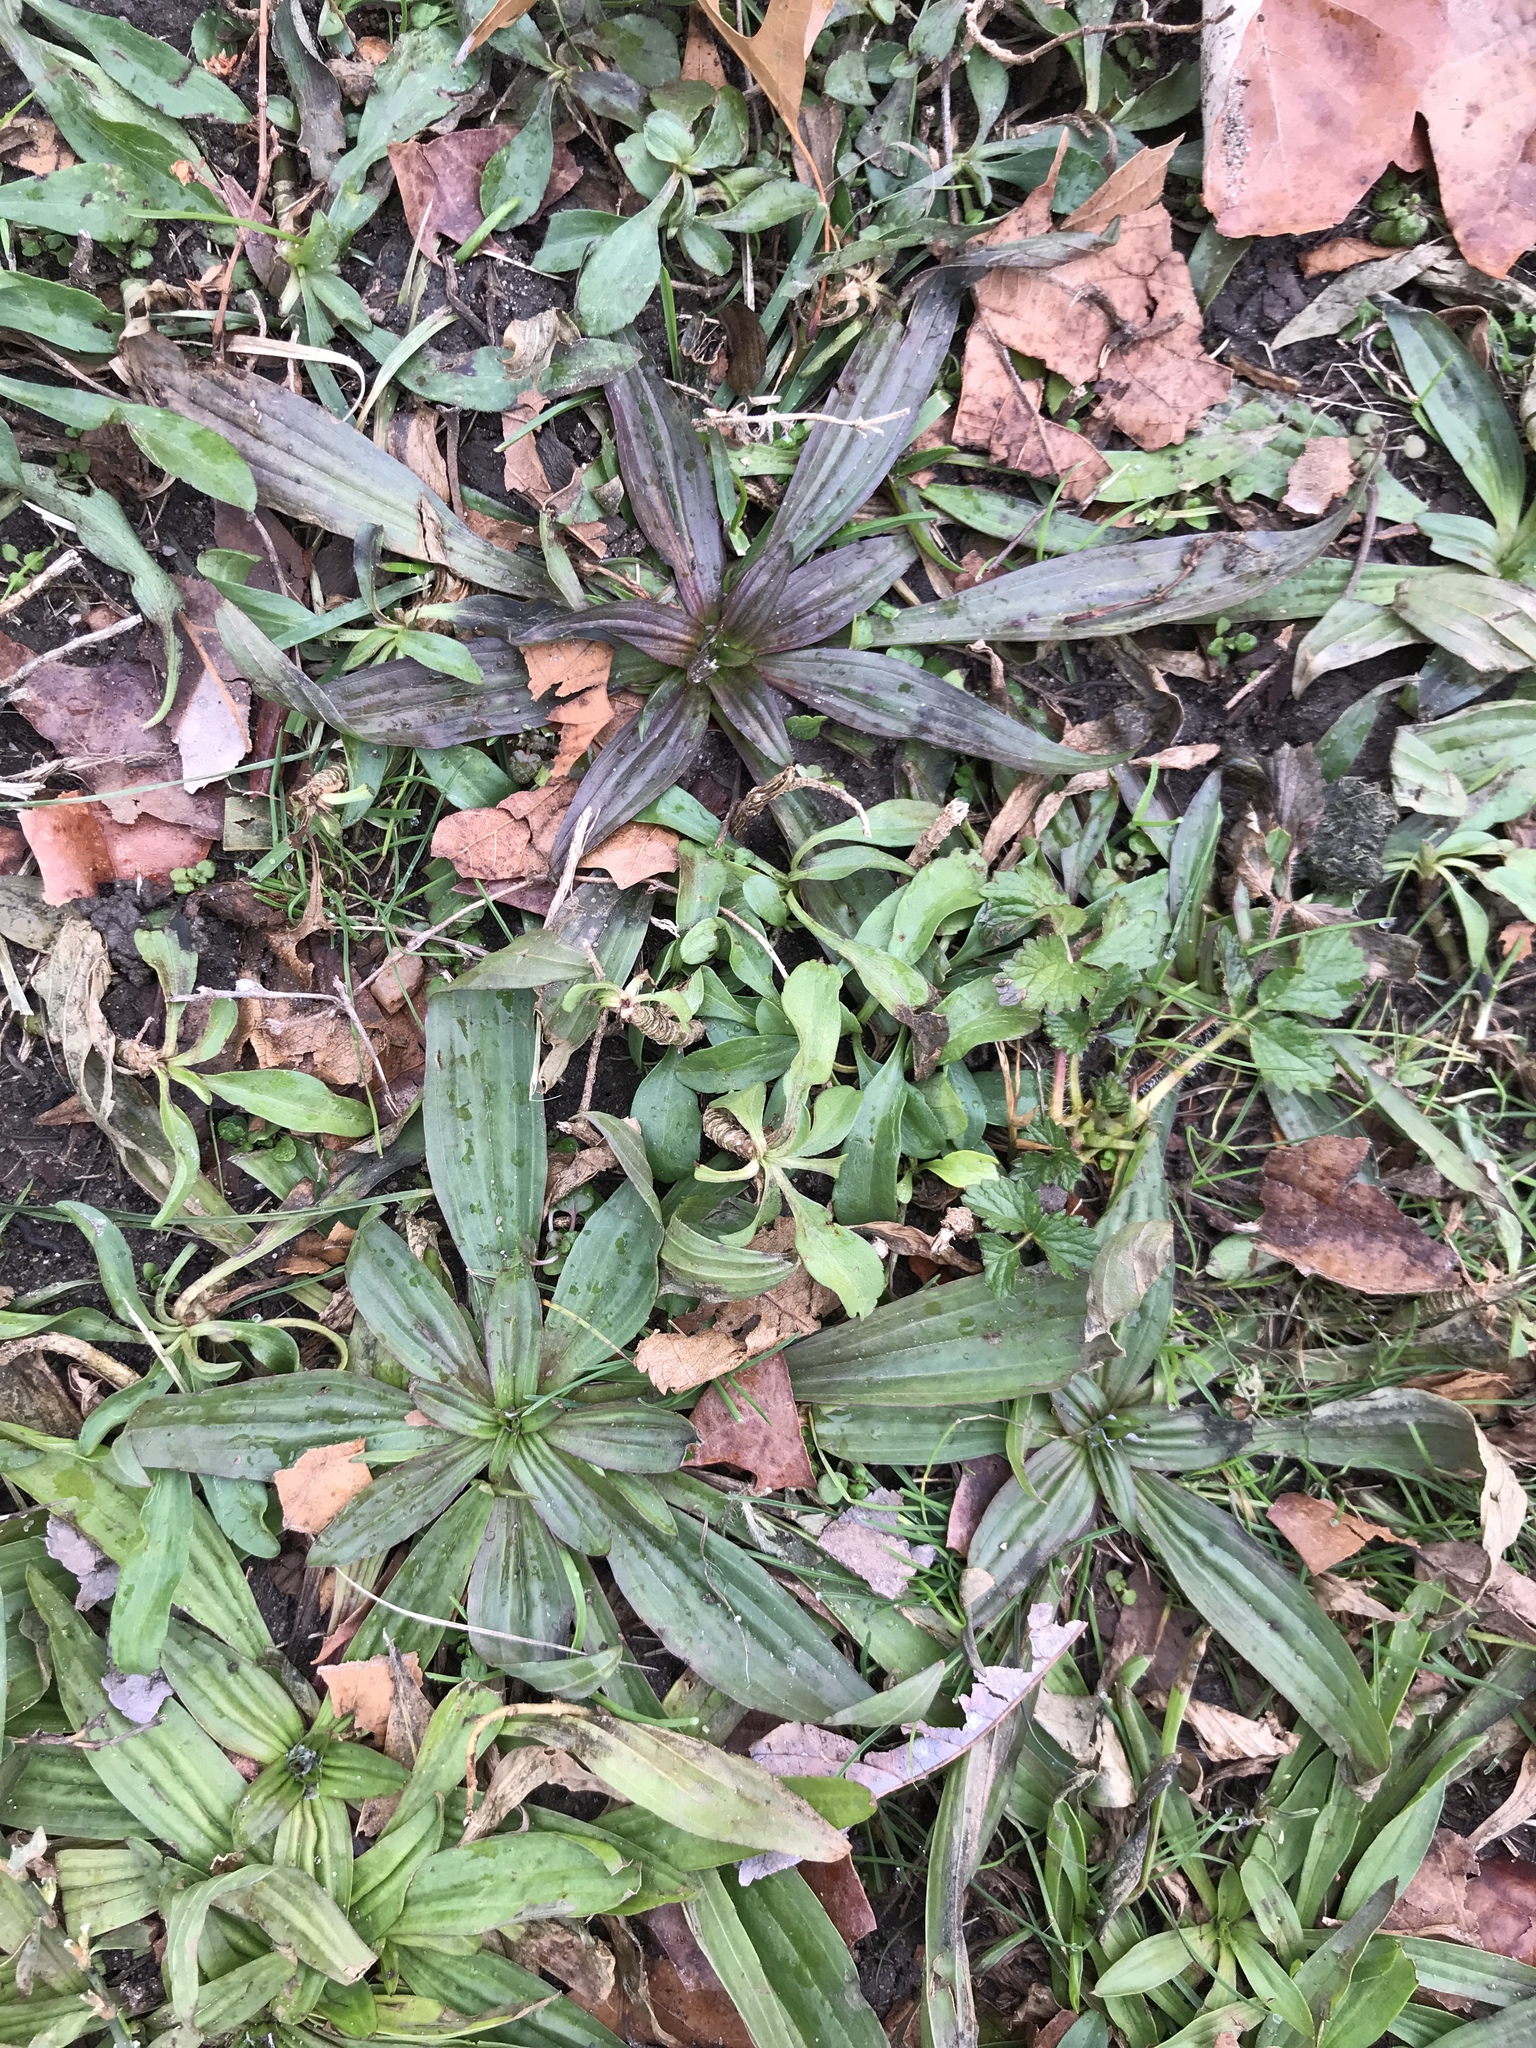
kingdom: Plantae
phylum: Tracheophyta
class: Magnoliopsida
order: Lamiales
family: Plantaginaceae
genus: Plantago
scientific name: Plantago lanceolata
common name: Ribwort plantain
